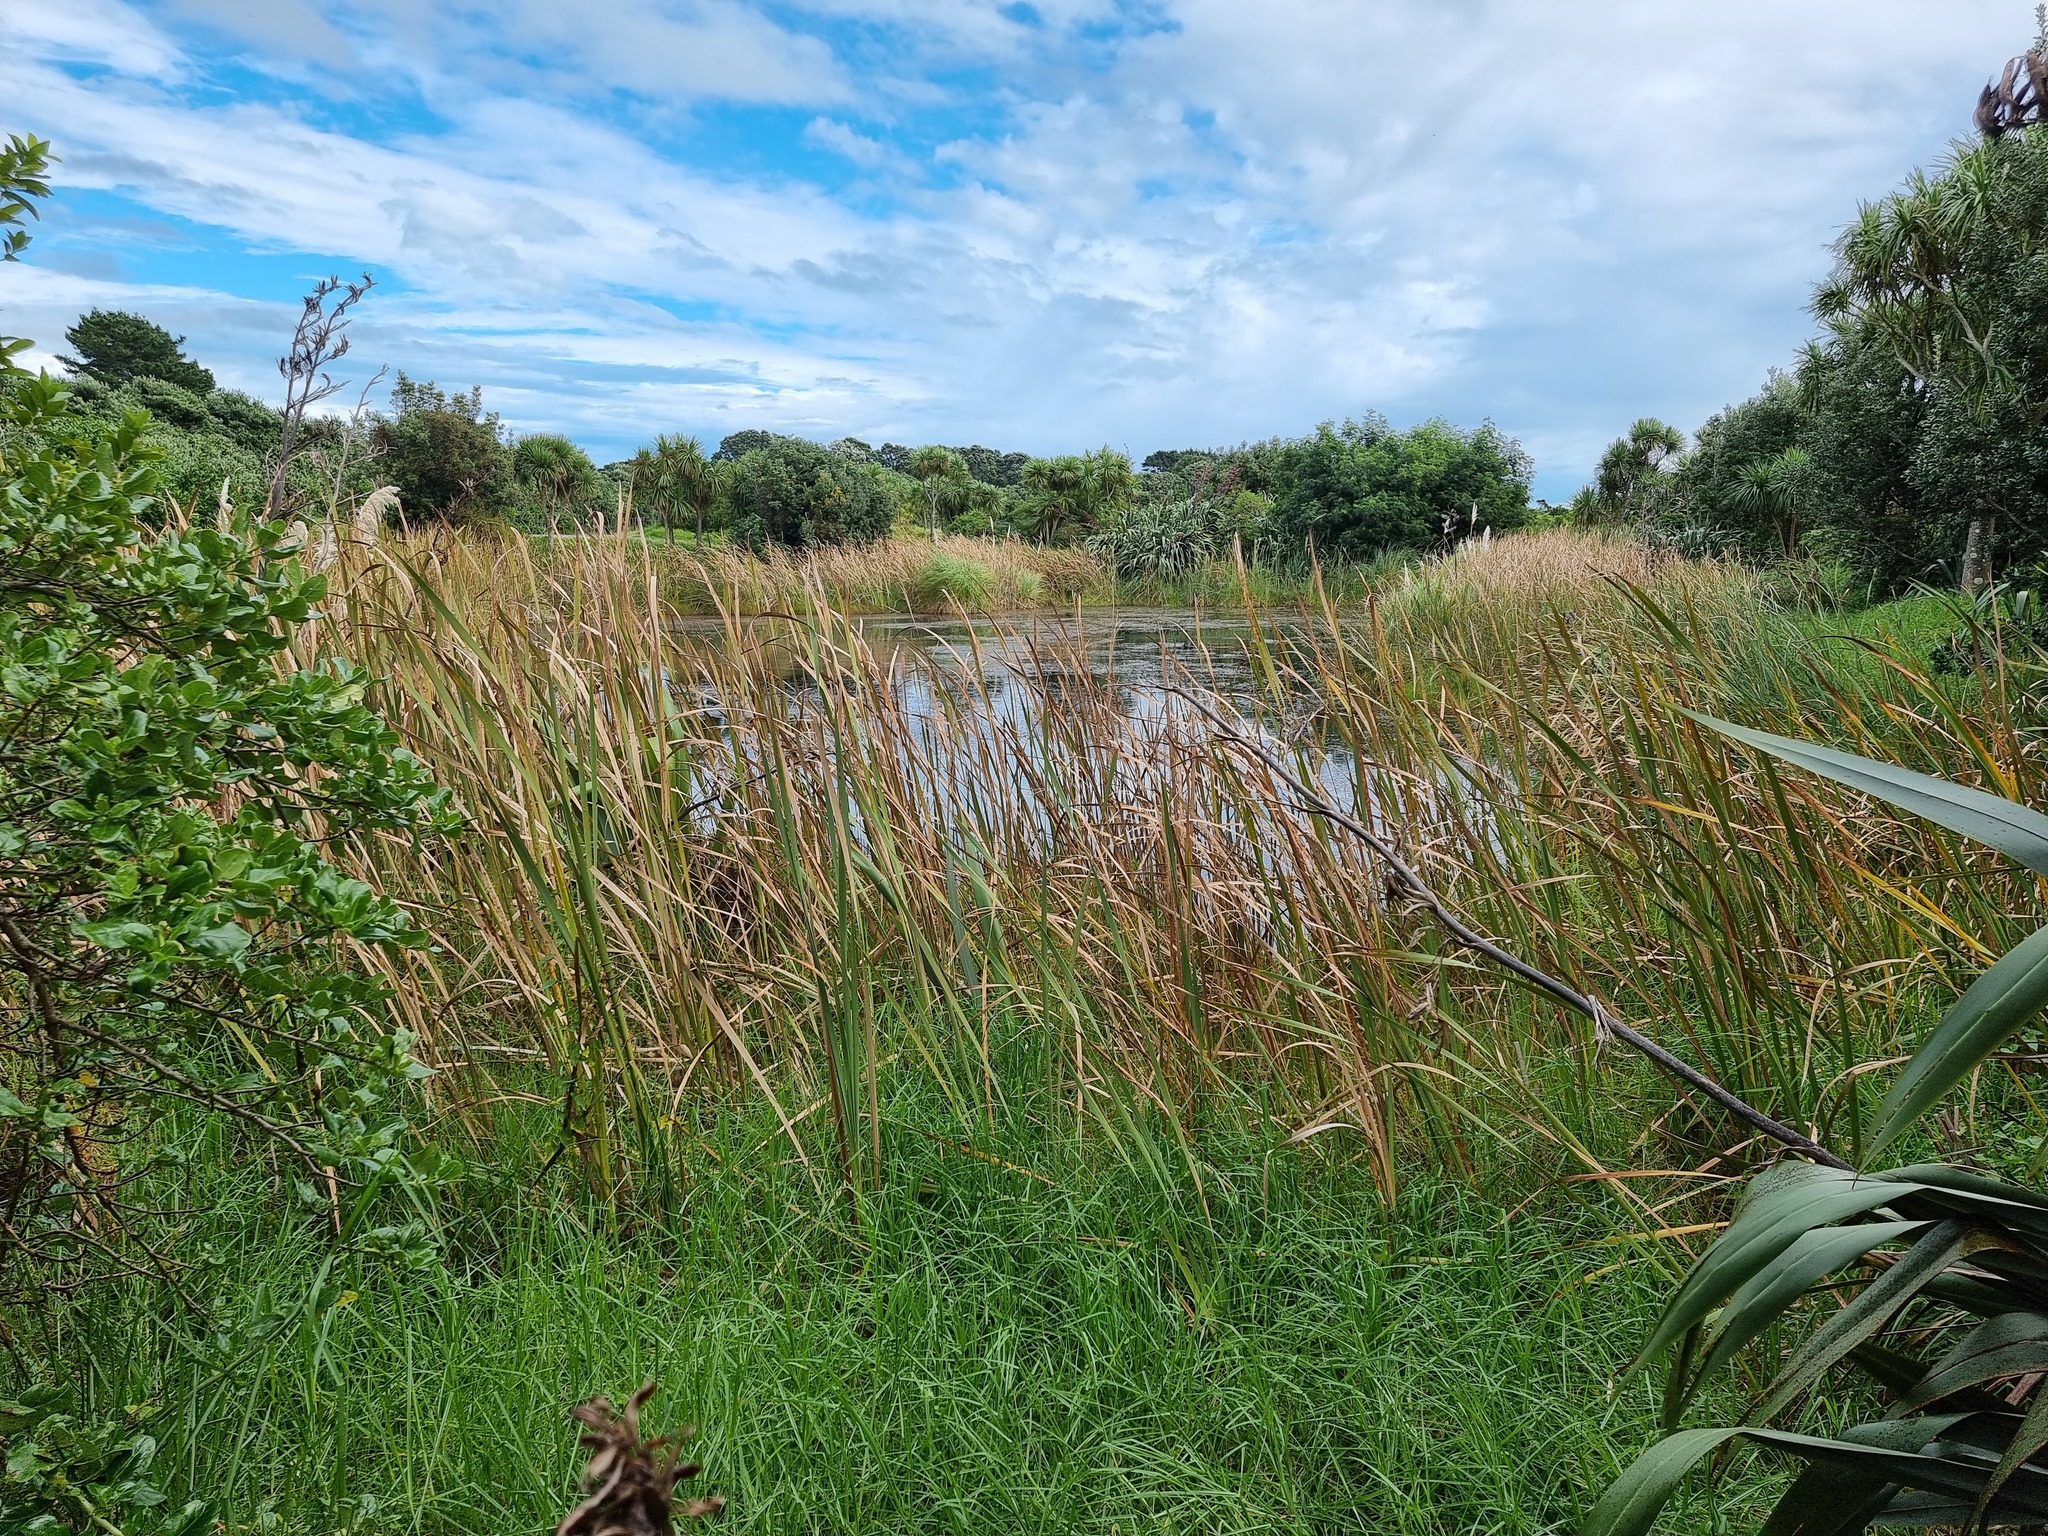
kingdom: Plantae
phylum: Tracheophyta
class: Liliopsida
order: Poales
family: Typhaceae
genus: Typha
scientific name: Typha orientalis
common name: Bullrush
